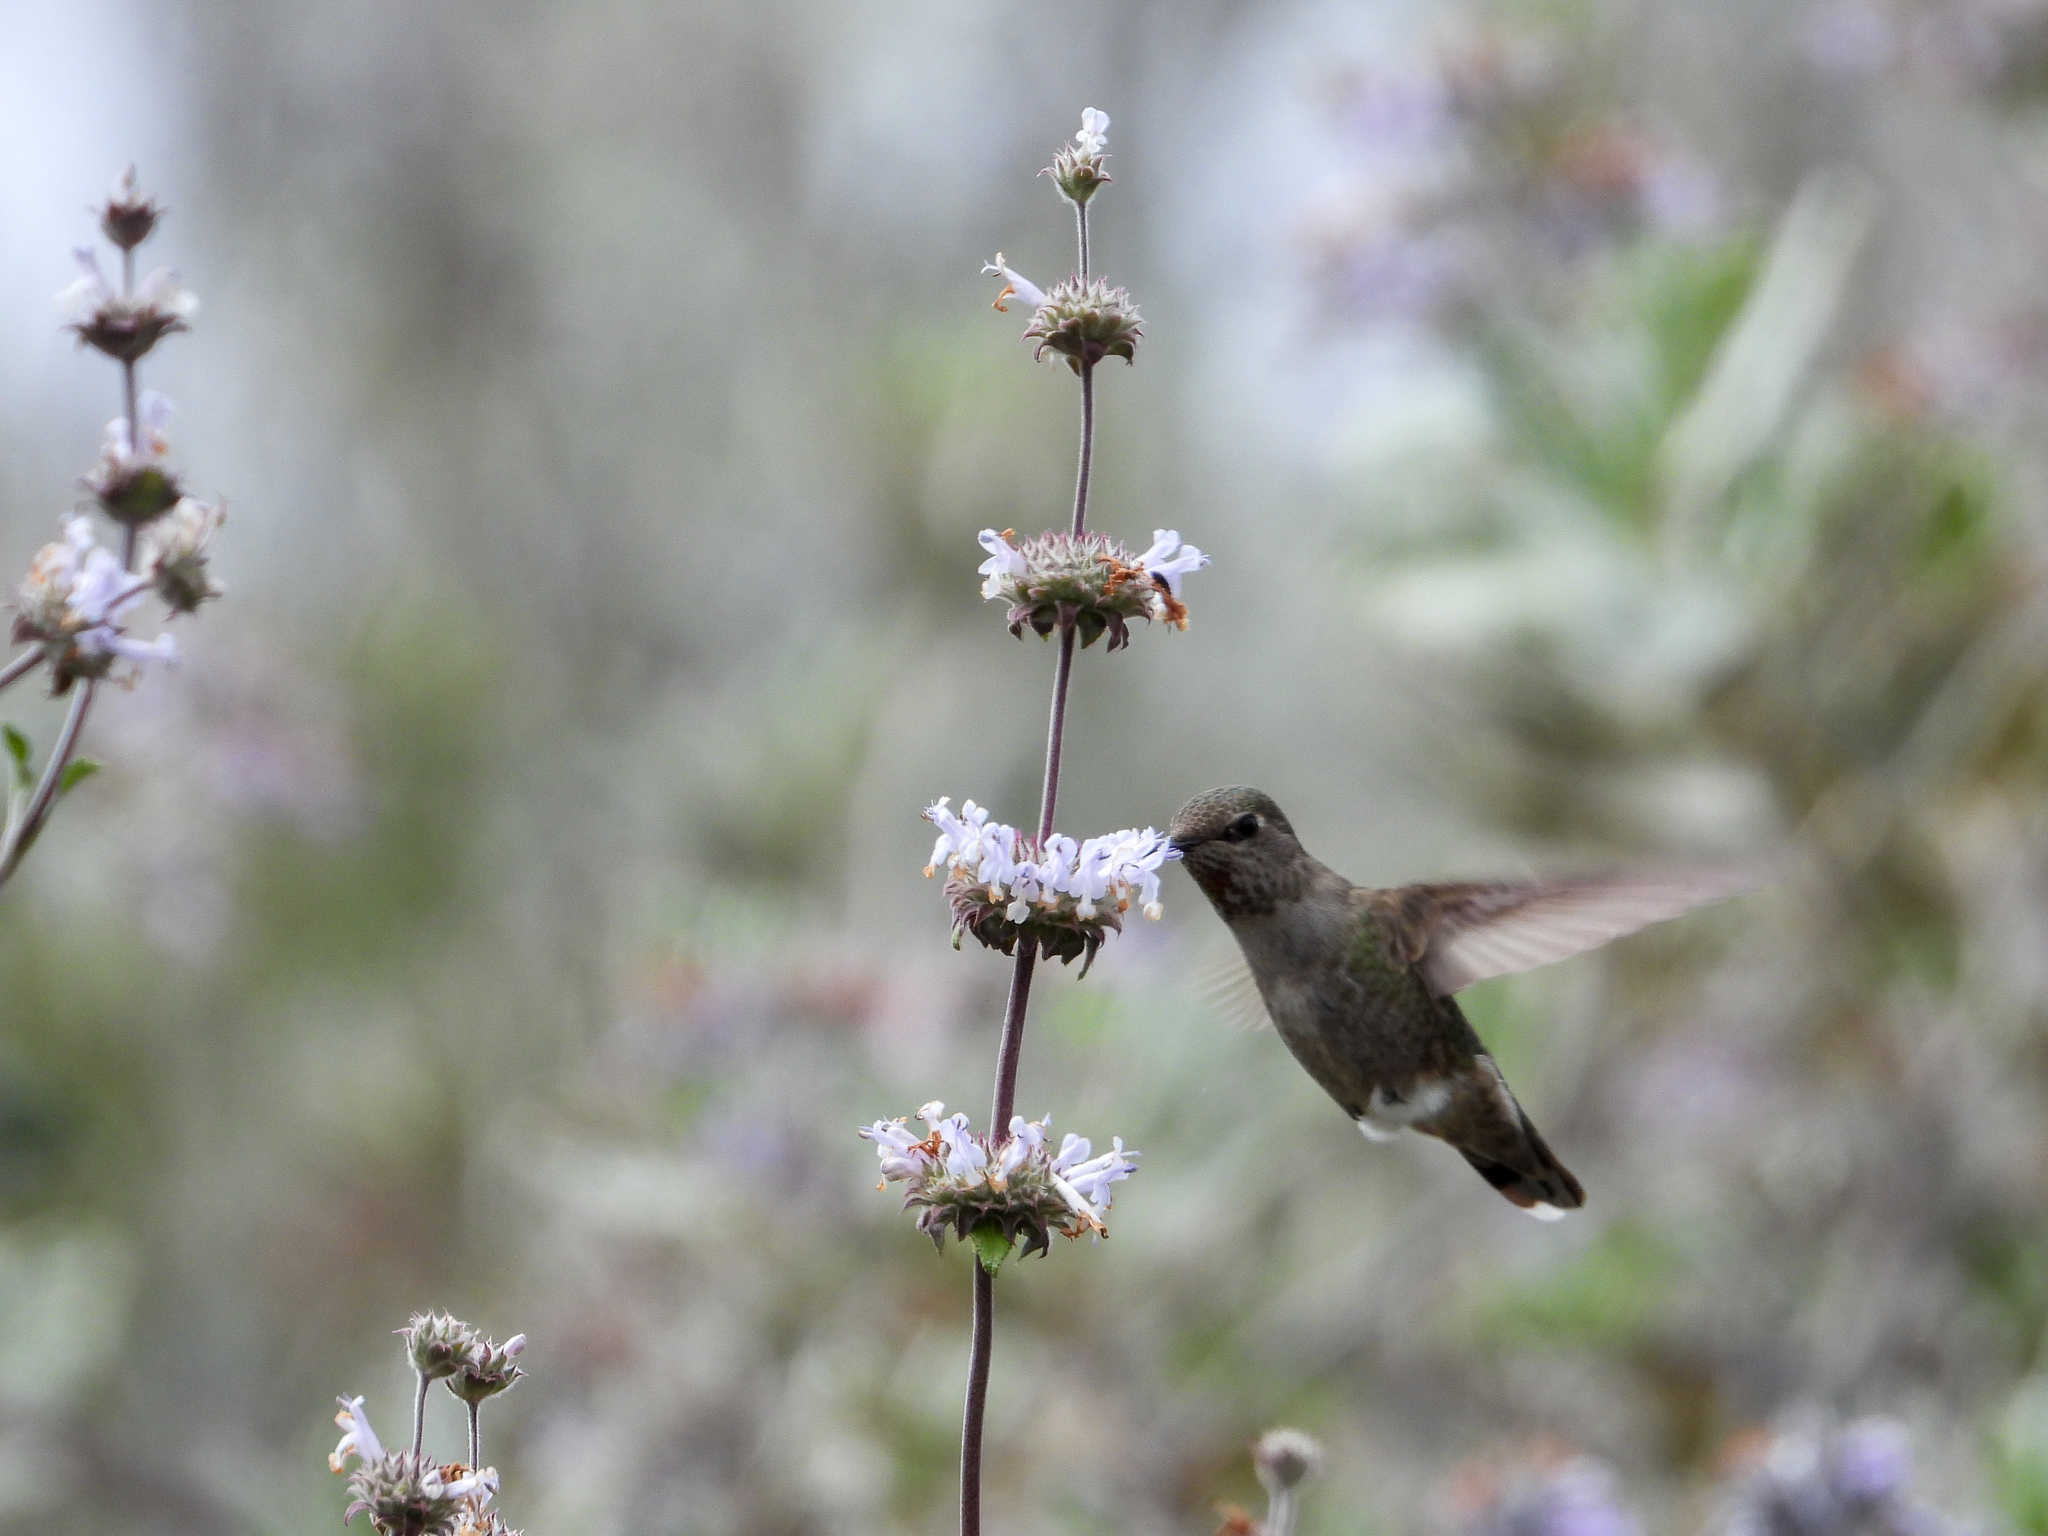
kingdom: Animalia
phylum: Chordata
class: Aves
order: Apodiformes
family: Trochilidae
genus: Calypte
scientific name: Calypte anna
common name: Anna's hummingbird
